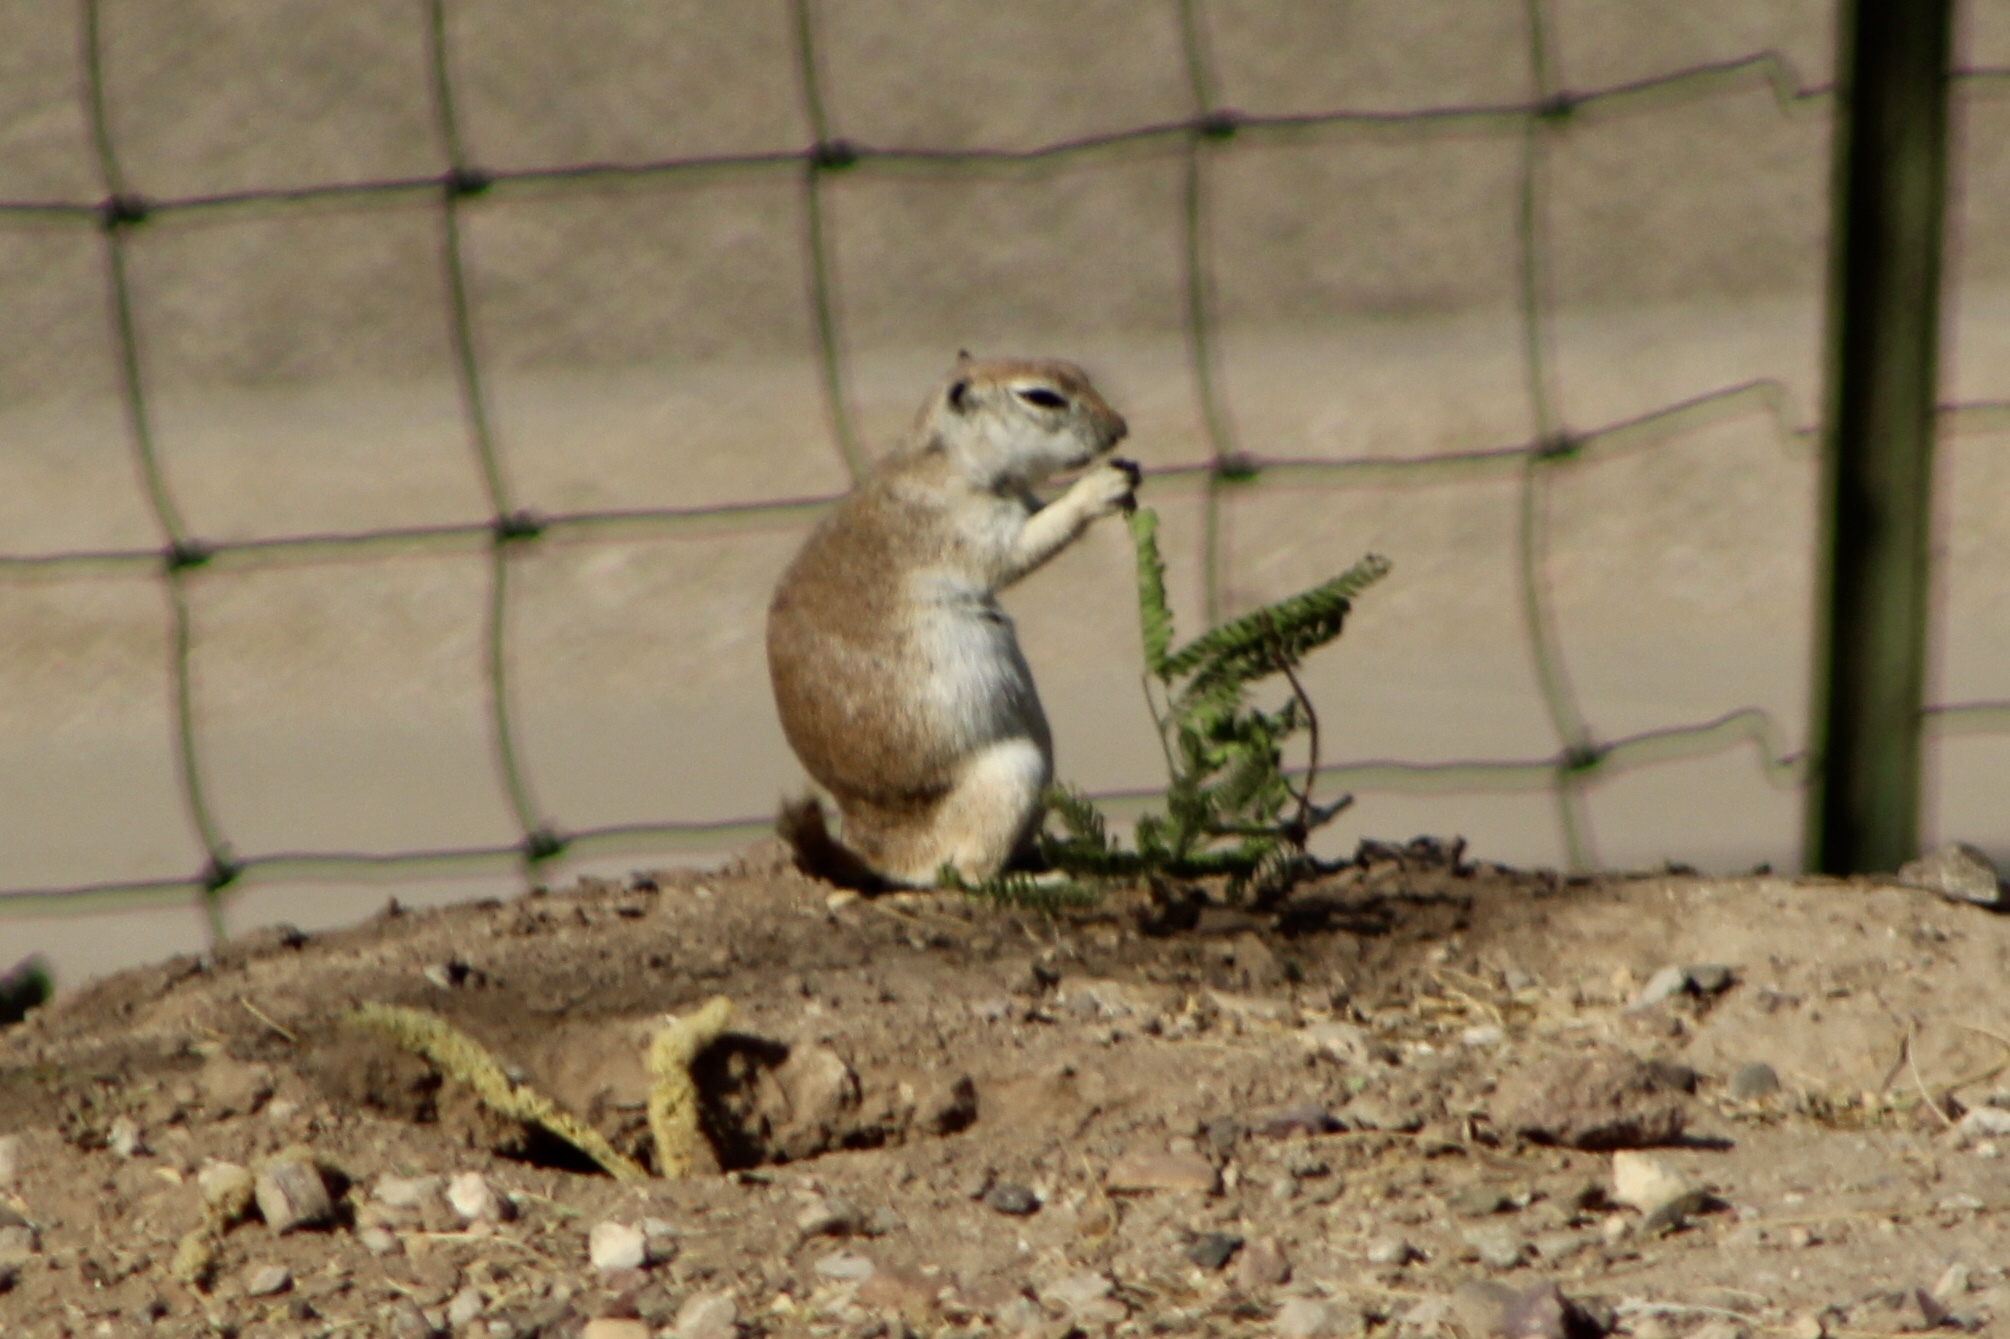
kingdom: Animalia
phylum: Chordata
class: Mammalia
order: Rodentia
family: Sciuridae
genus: Xerospermophilus
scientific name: Xerospermophilus tereticaudus
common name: Round-tailed ground squirrel
